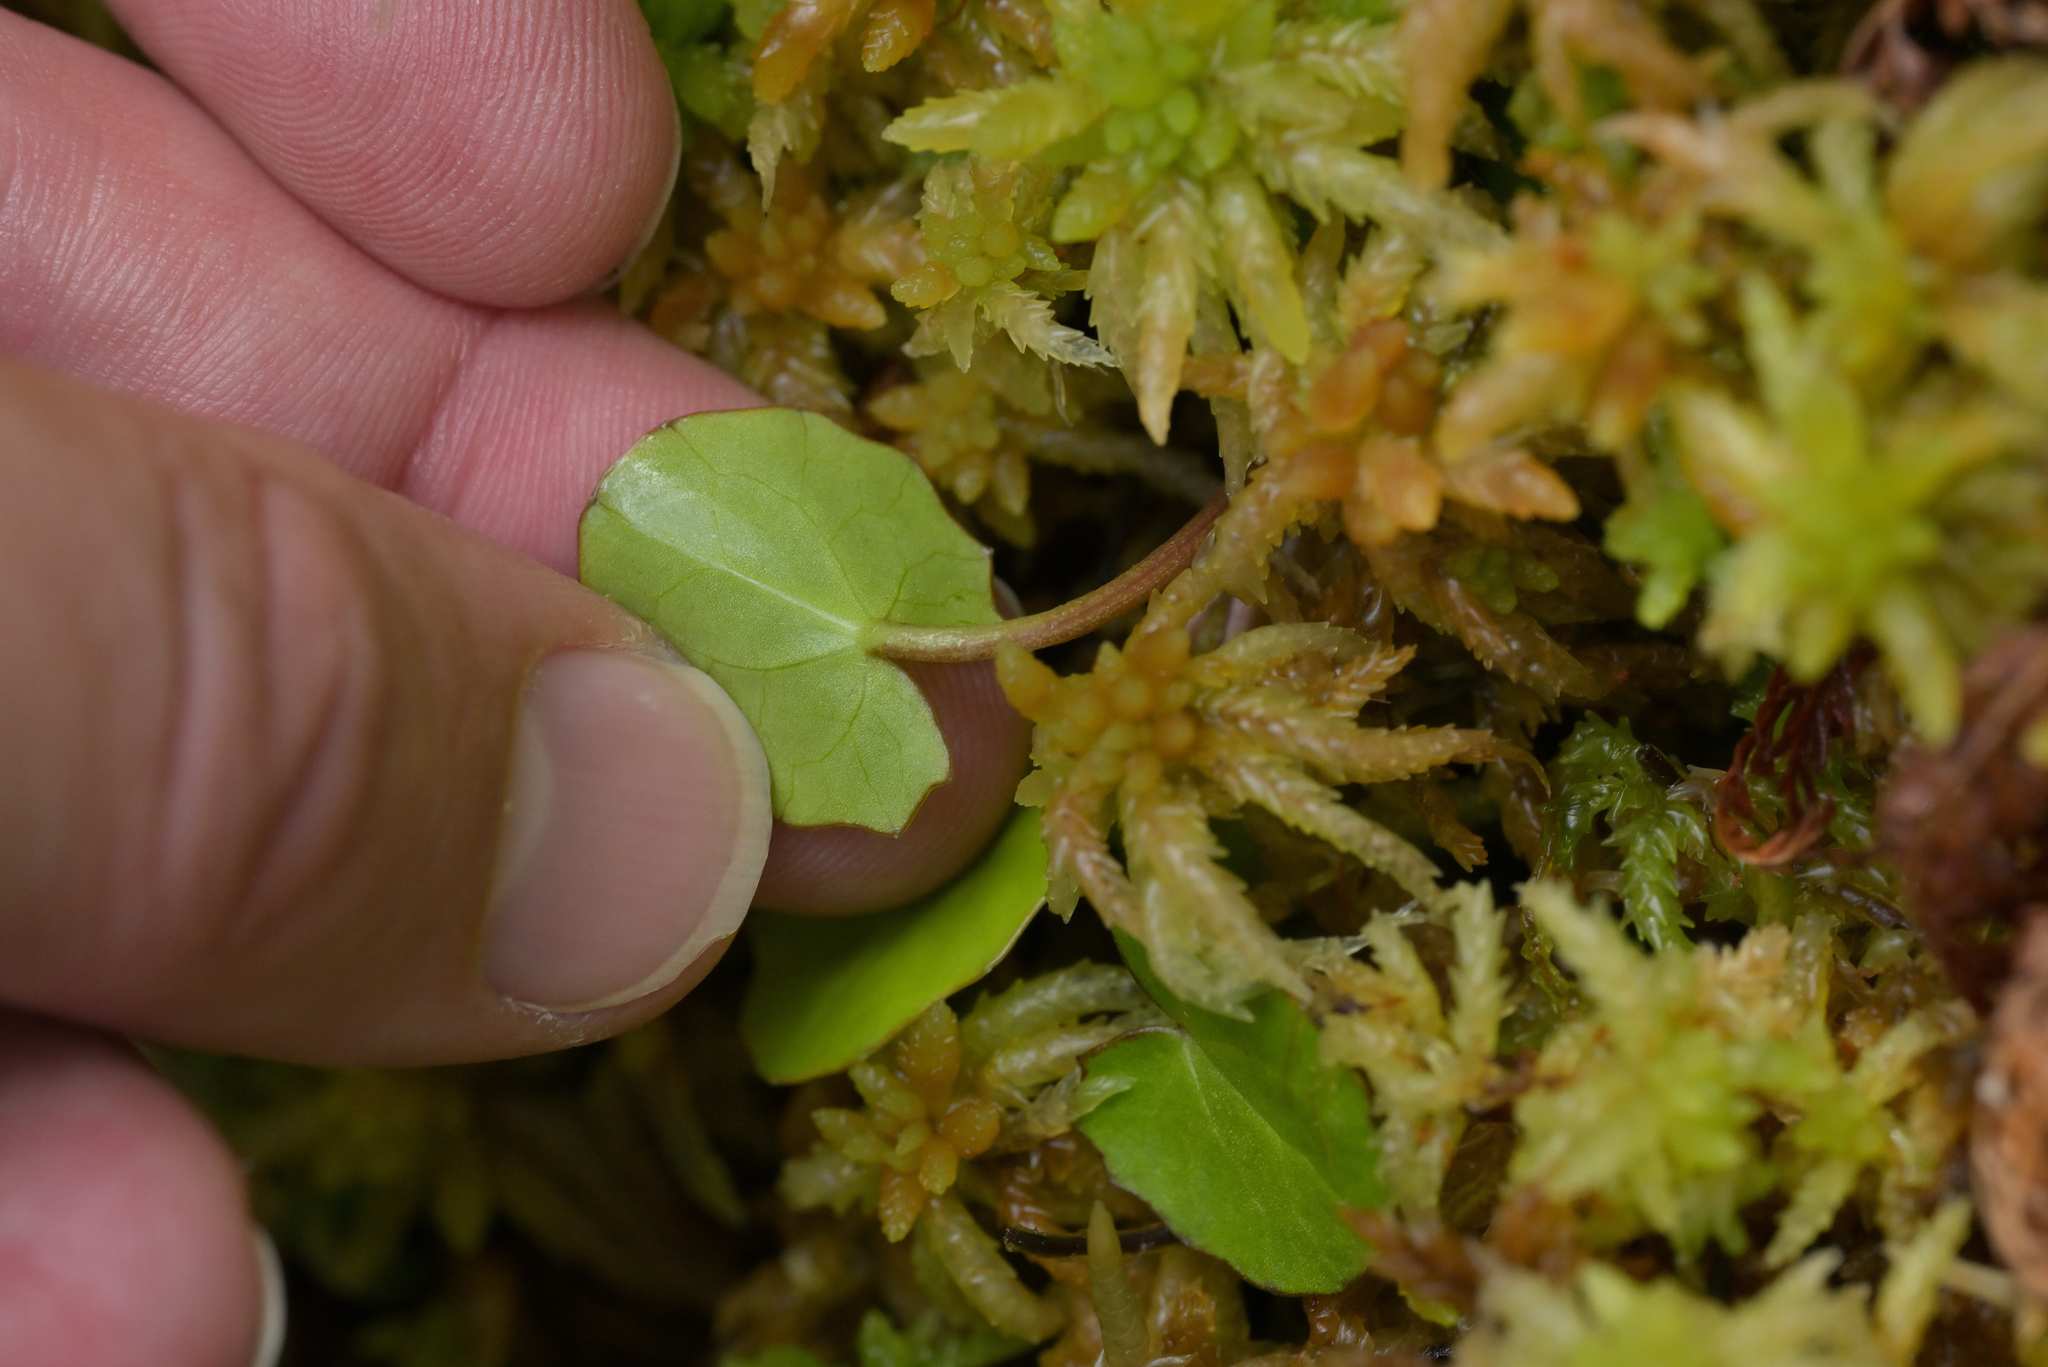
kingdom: Plantae
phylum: Tracheophyta
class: Magnoliopsida
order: Apiales
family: Apiaceae
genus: Centella
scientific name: Centella uniflora
